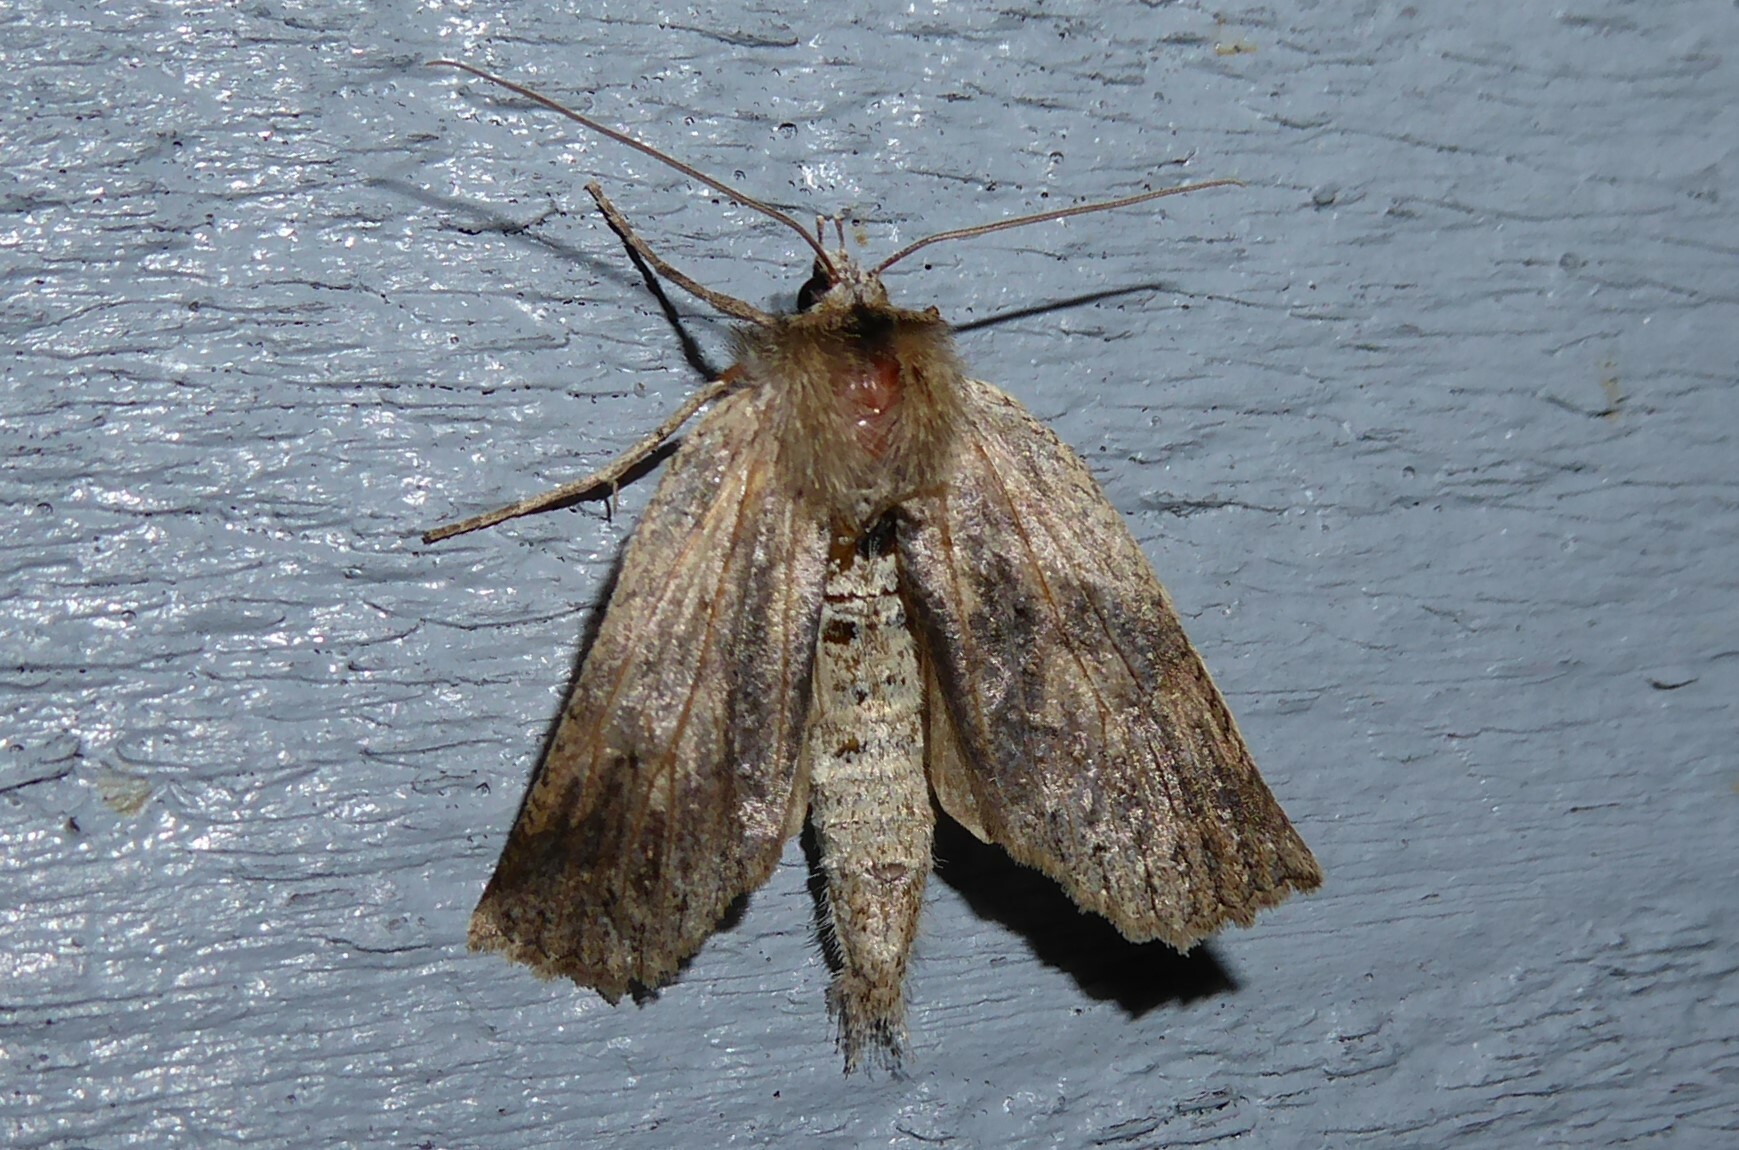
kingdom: Animalia
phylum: Arthropoda
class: Insecta
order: Lepidoptera
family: Geometridae
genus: Declana
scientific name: Declana leptomera
